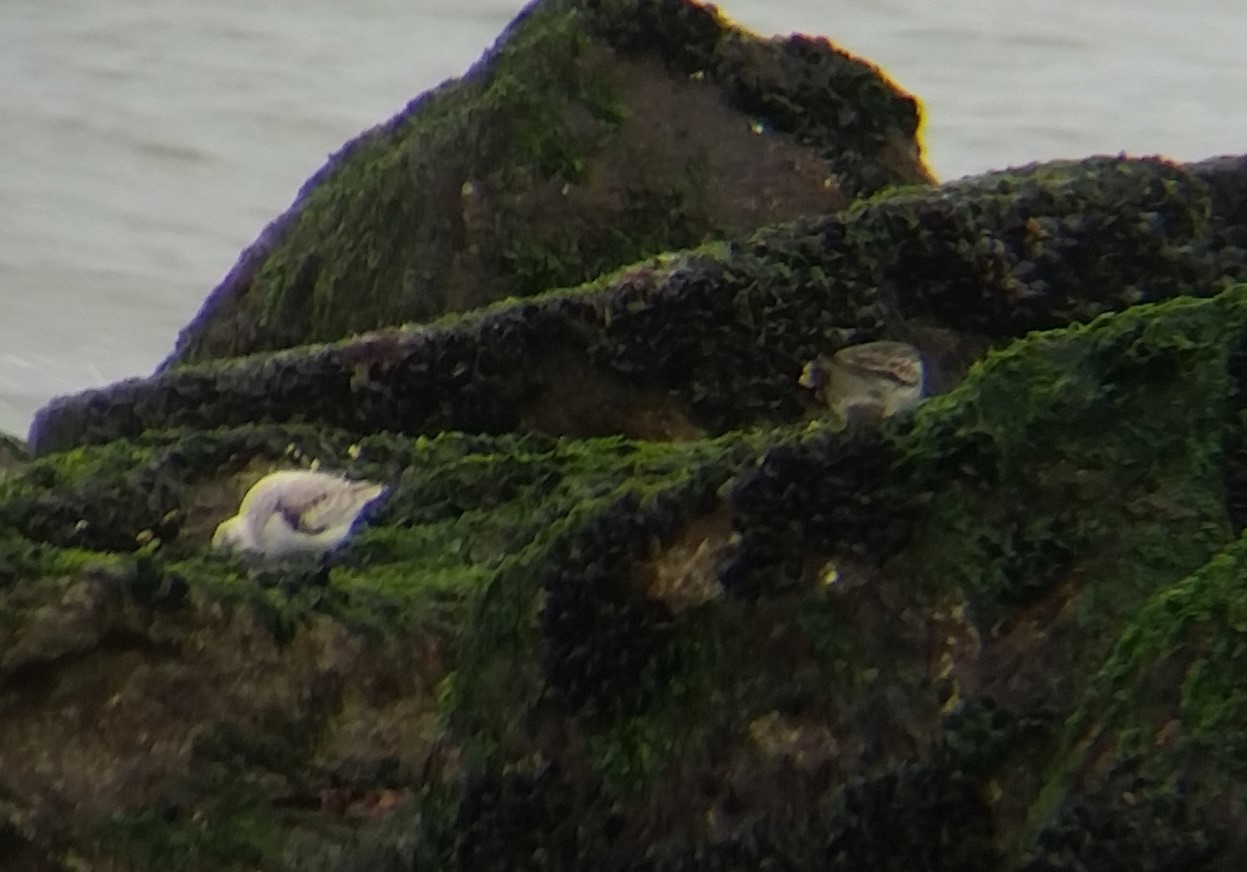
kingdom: Animalia
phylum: Chordata
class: Aves
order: Charadriiformes
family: Scolopacidae
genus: Calidris
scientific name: Calidris maritima
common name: Purple sandpiper
